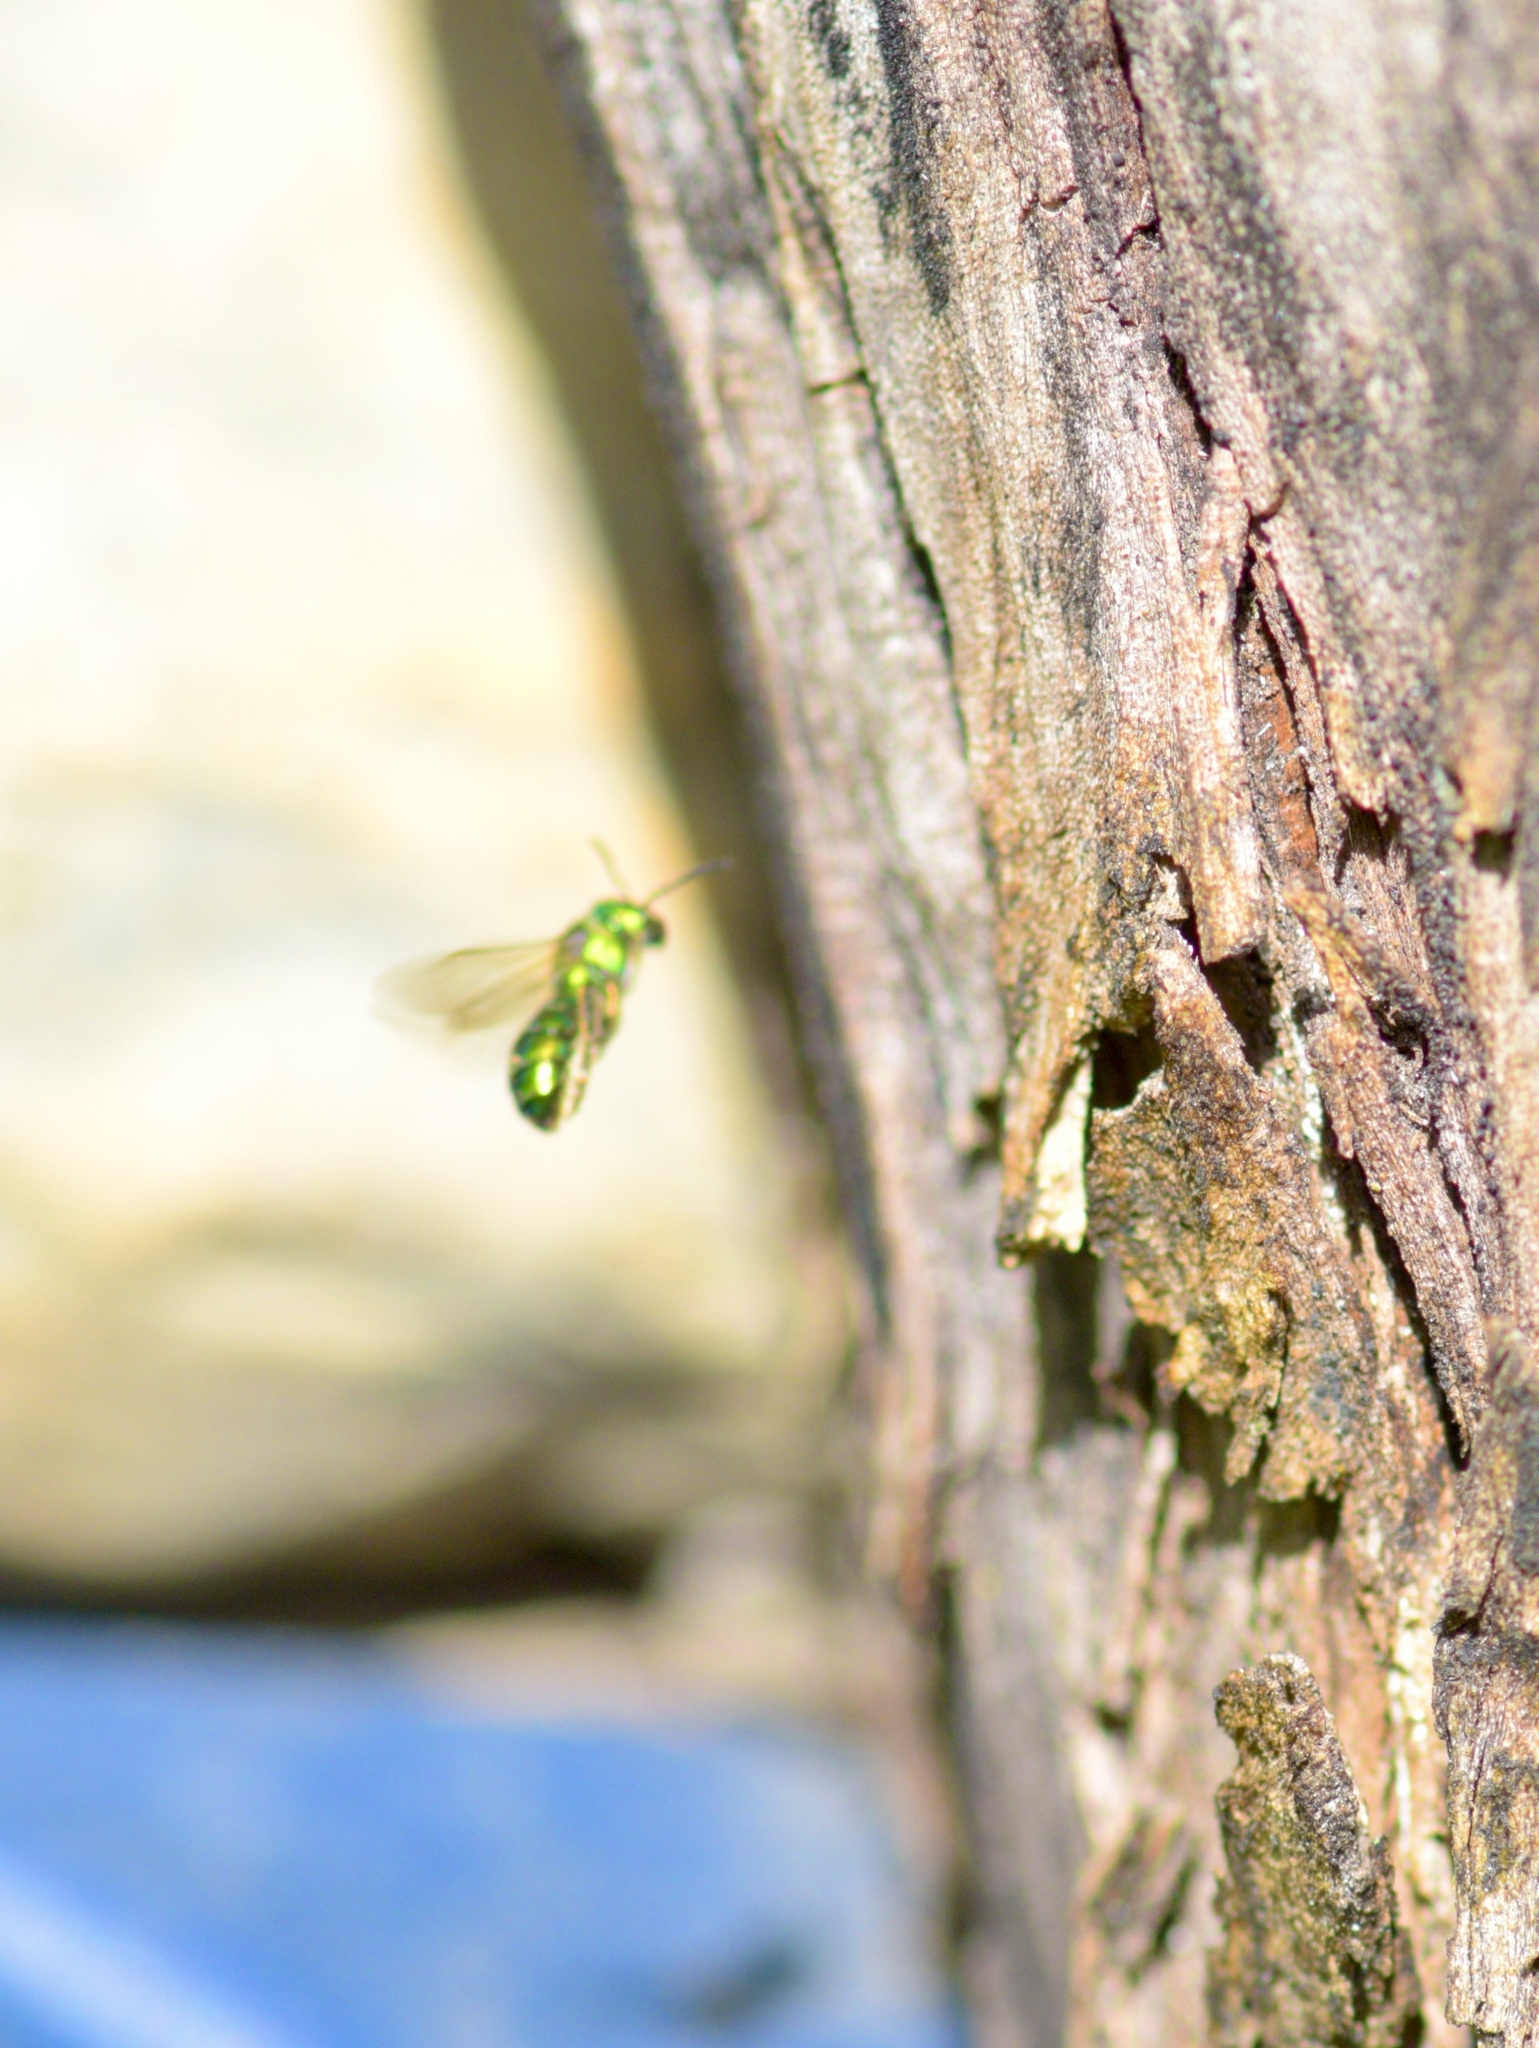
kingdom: Animalia
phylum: Arthropoda
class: Insecta
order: Hymenoptera
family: Halictidae
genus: Augochlora
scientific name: Augochlora pura
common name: Pure green sweat bee
